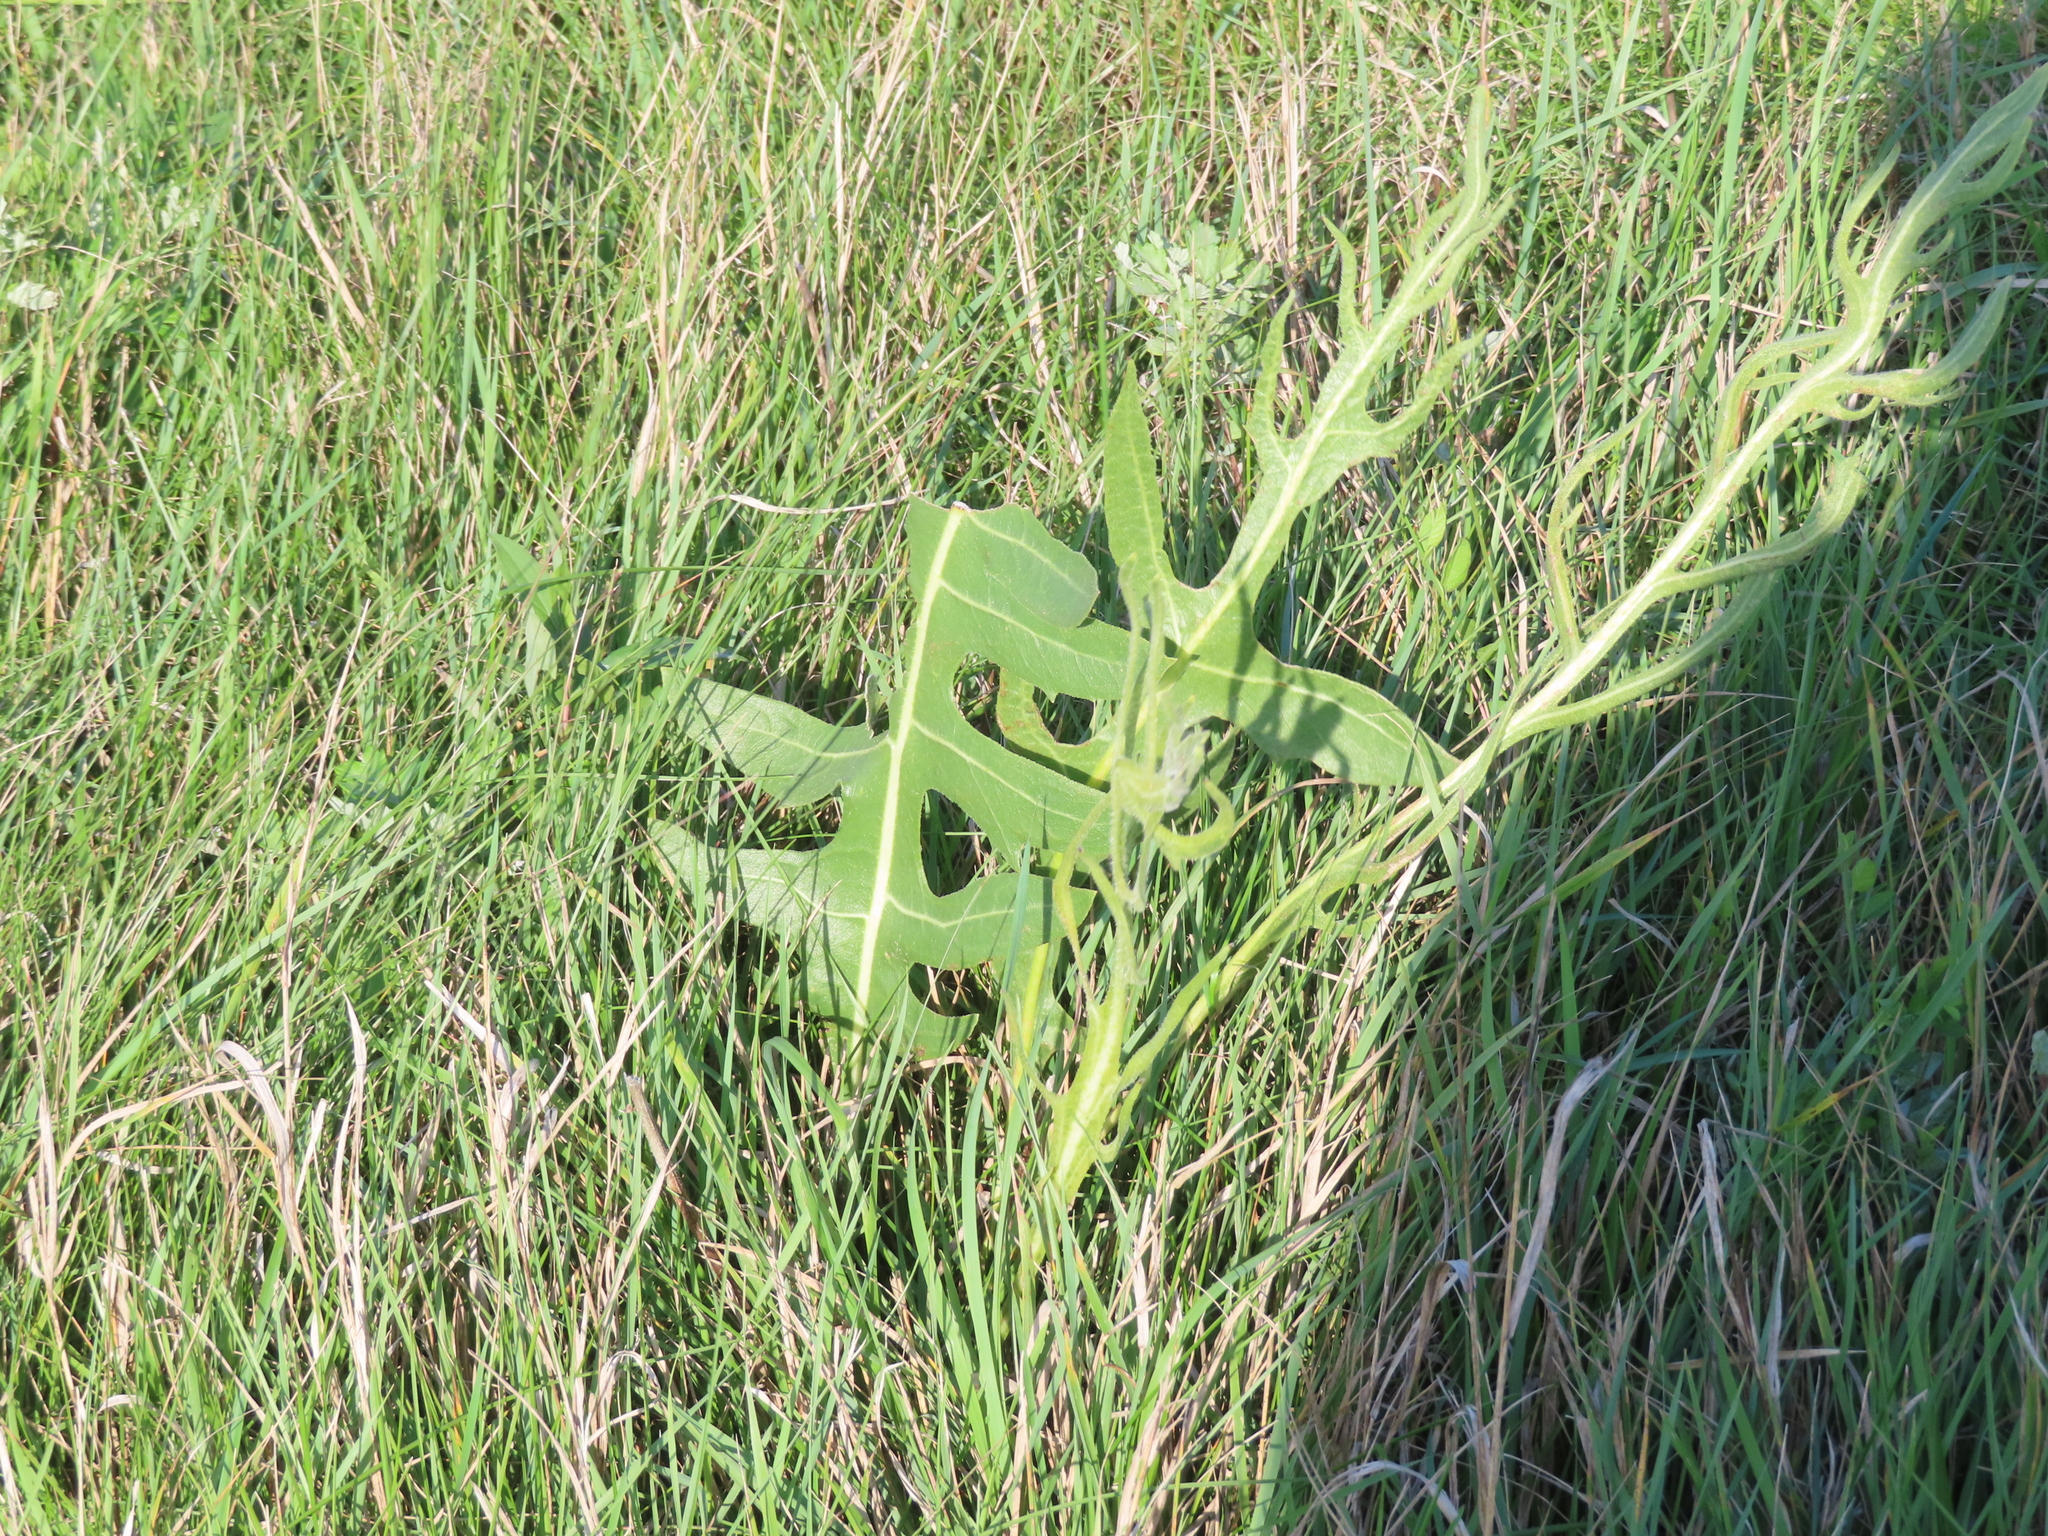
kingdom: Plantae
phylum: Tracheophyta
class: Magnoliopsida
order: Asterales
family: Asteraceae
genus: Silphium
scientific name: Silphium laciniatum
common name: Polarplant
